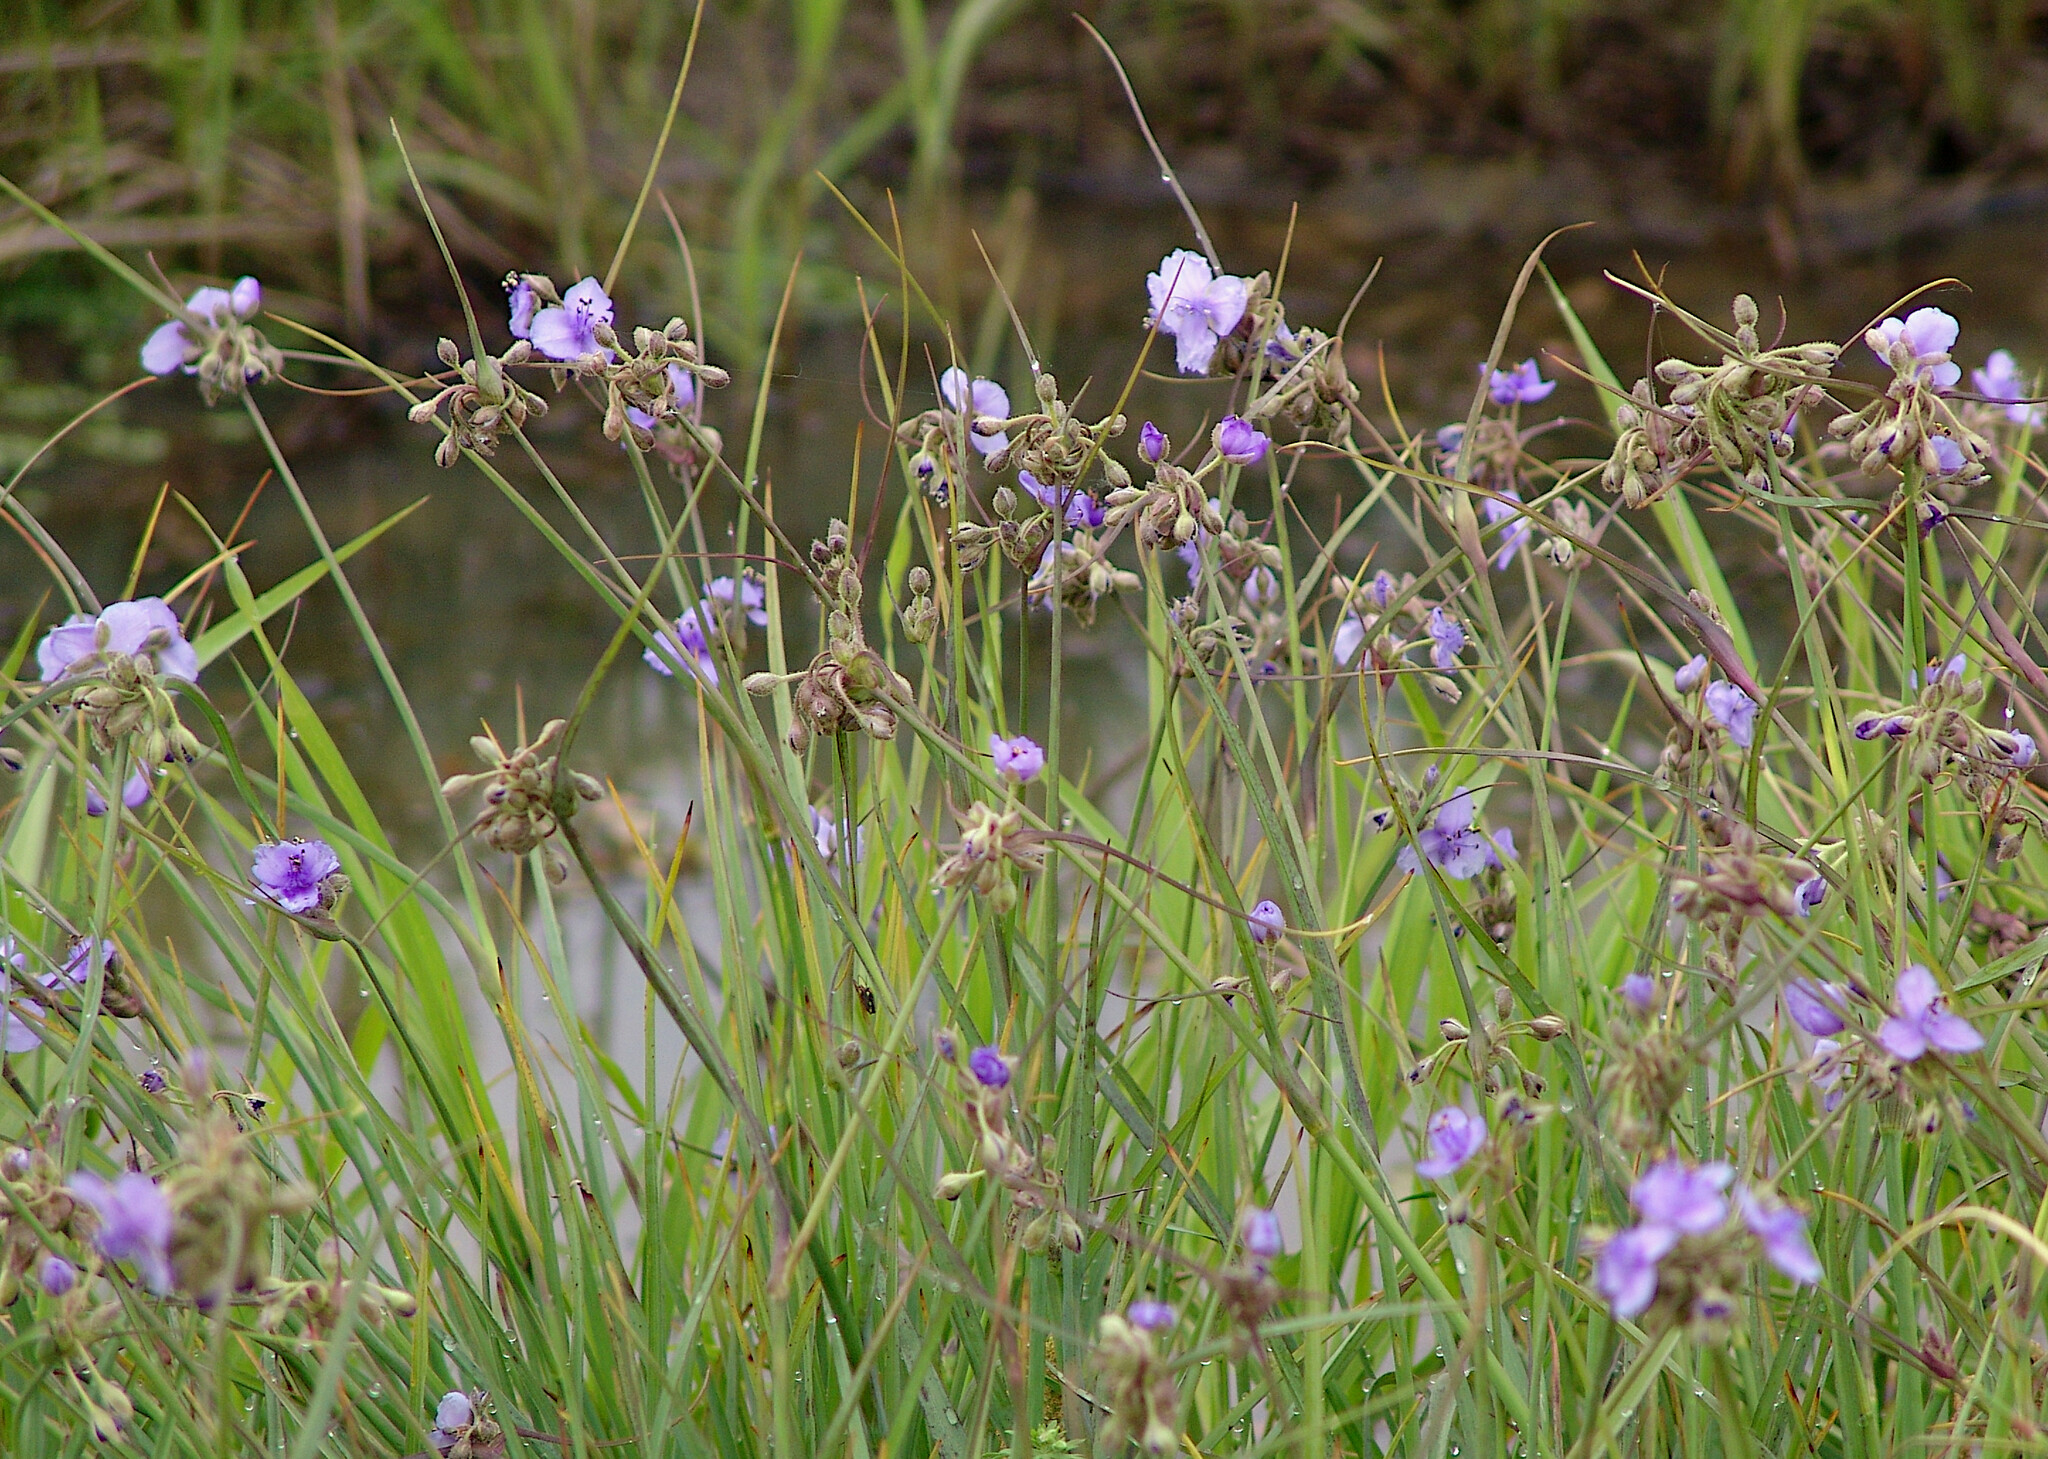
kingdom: Plantae
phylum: Tracheophyta
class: Liliopsida
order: Commelinales
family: Commelinaceae
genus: Tradescantia
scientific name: Tradescantia occidentalis
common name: Prairie spiderwort
